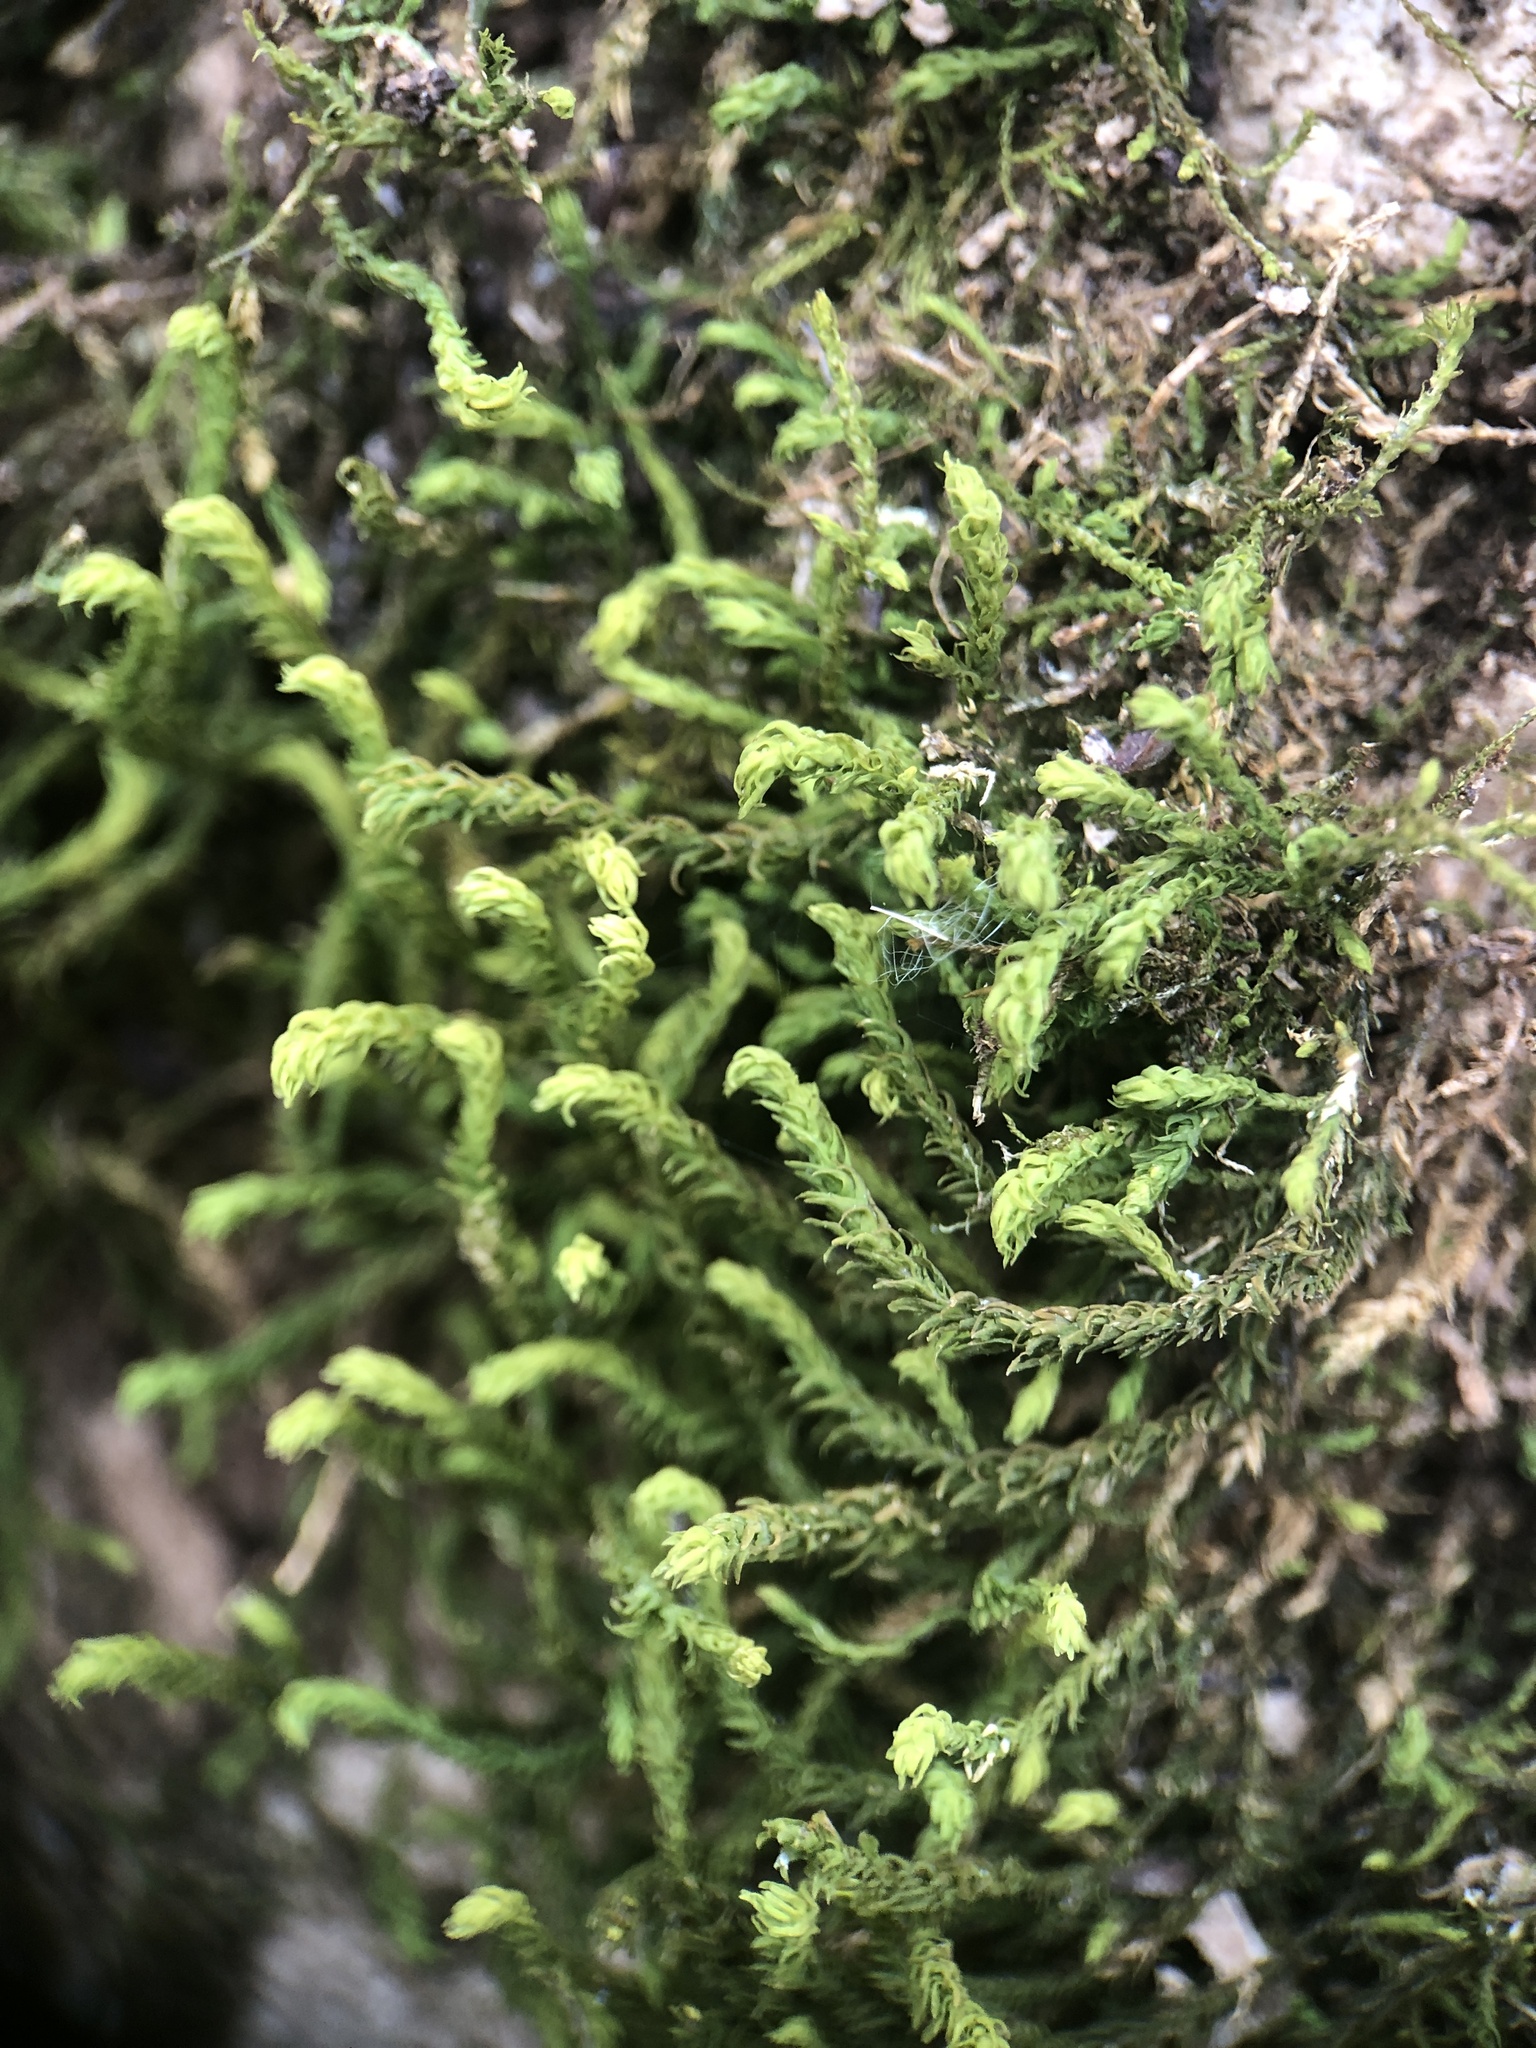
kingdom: Plantae
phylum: Bryophyta
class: Bryopsida
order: Hypnales
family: Anomodontaceae
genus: Anomodon
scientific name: Anomodon viticulosus
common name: Tall anomodon
